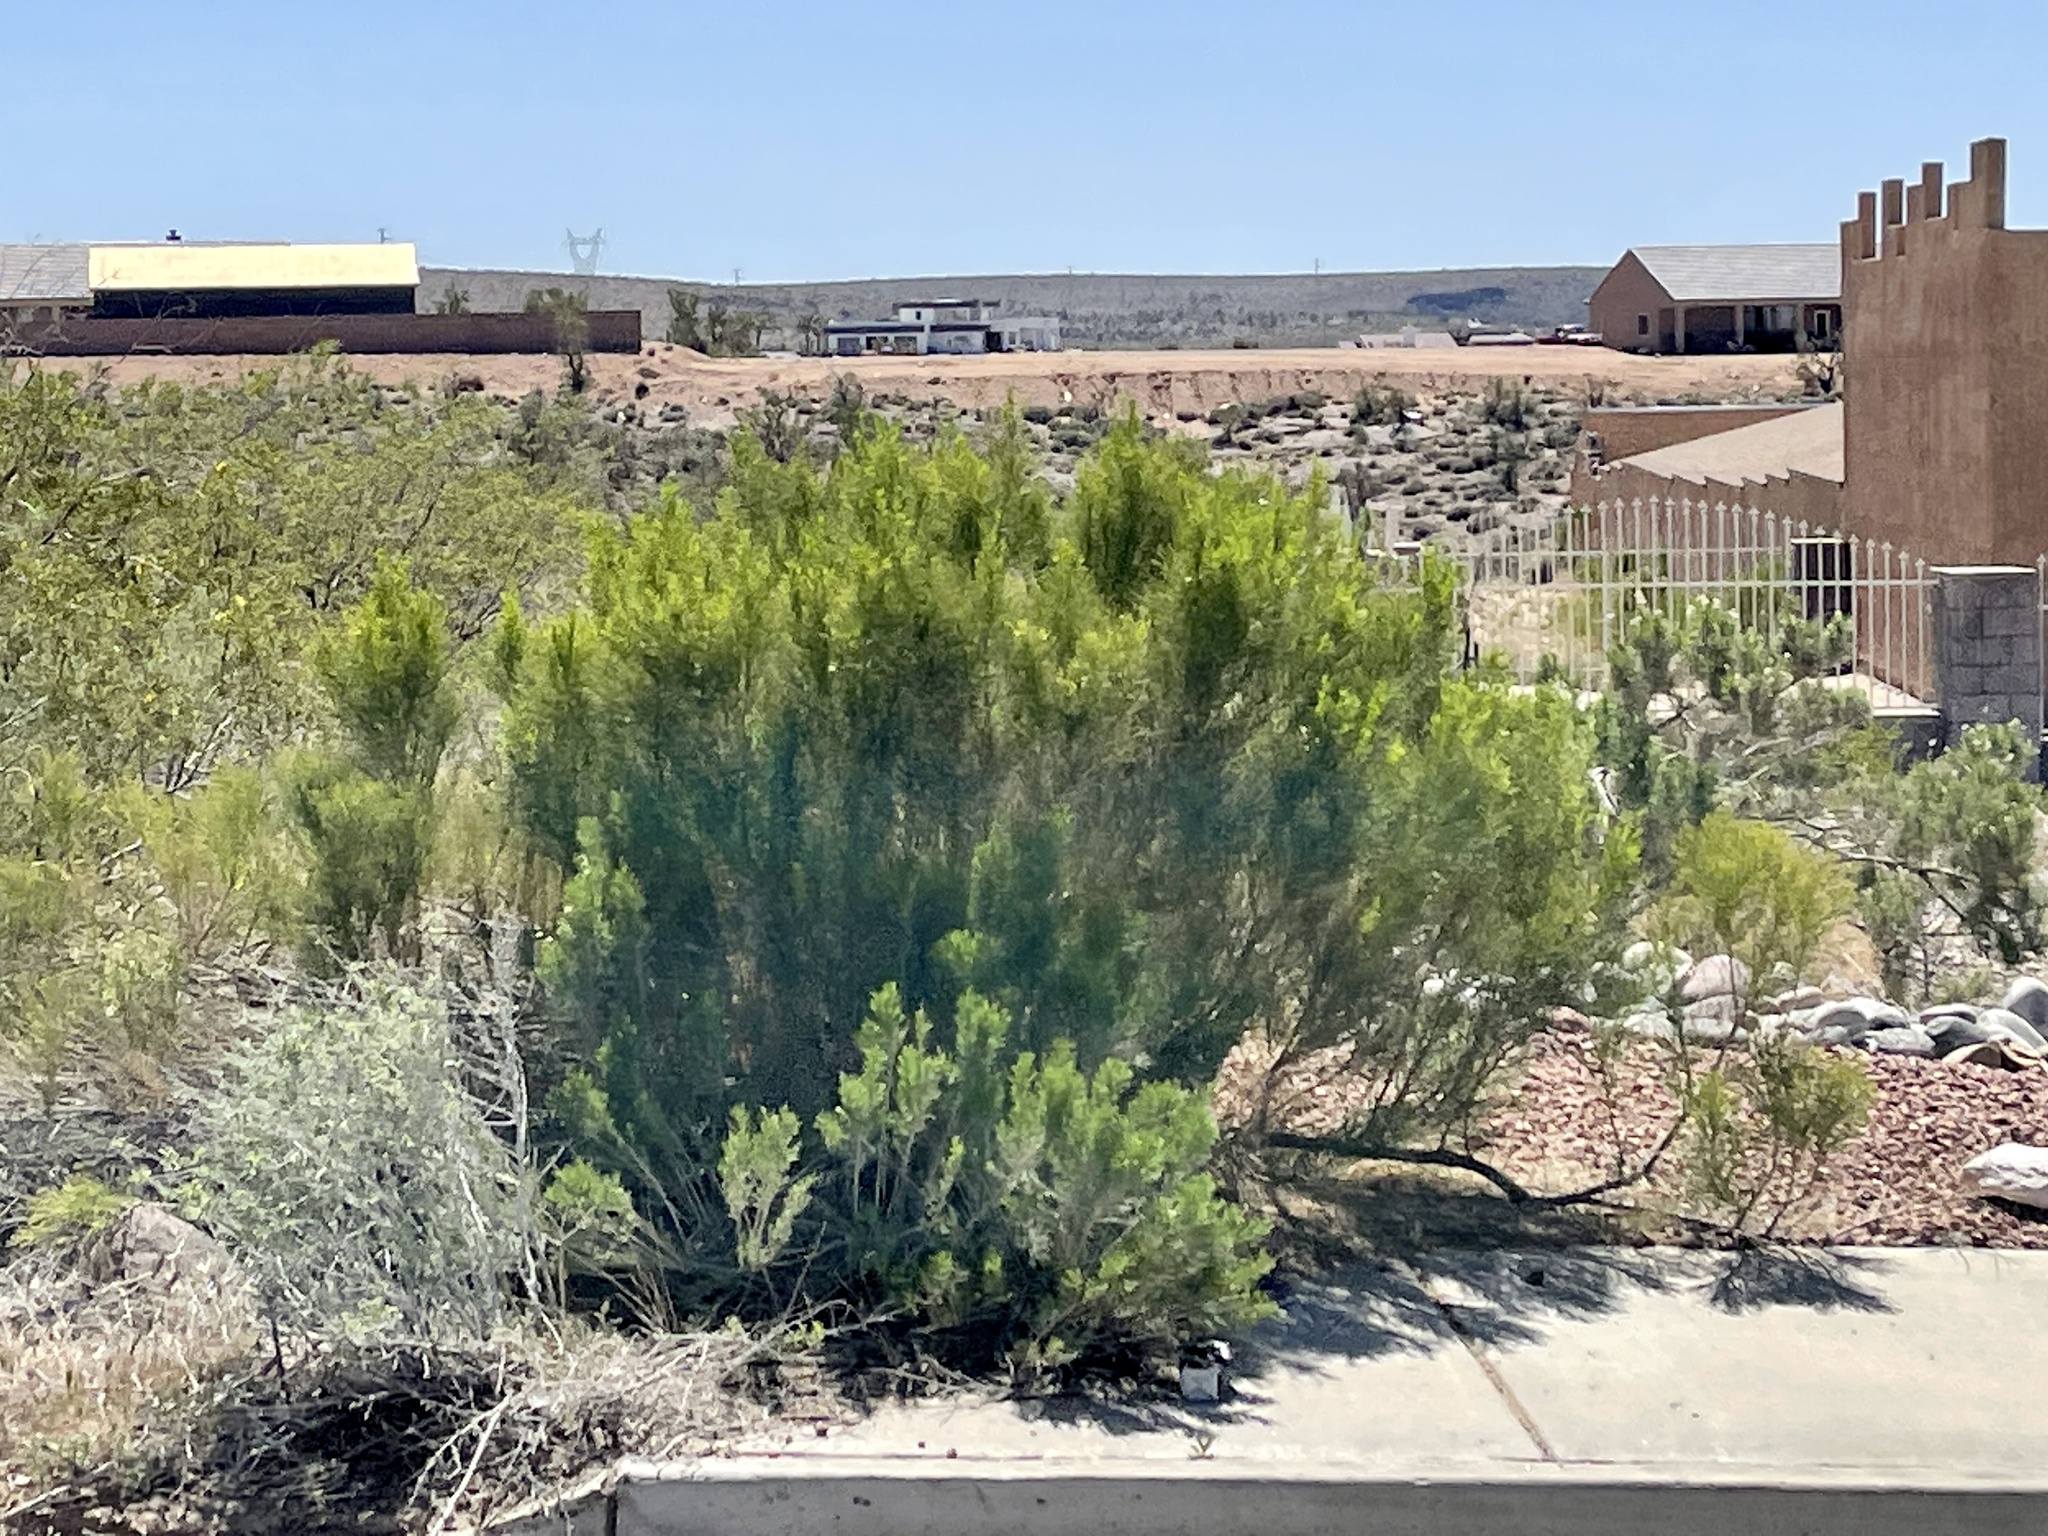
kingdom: Plantae
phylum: Tracheophyta
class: Magnoliopsida
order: Asterales
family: Asteraceae
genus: Baccharis
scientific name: Baccharis sarothroides
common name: Desert-broom
